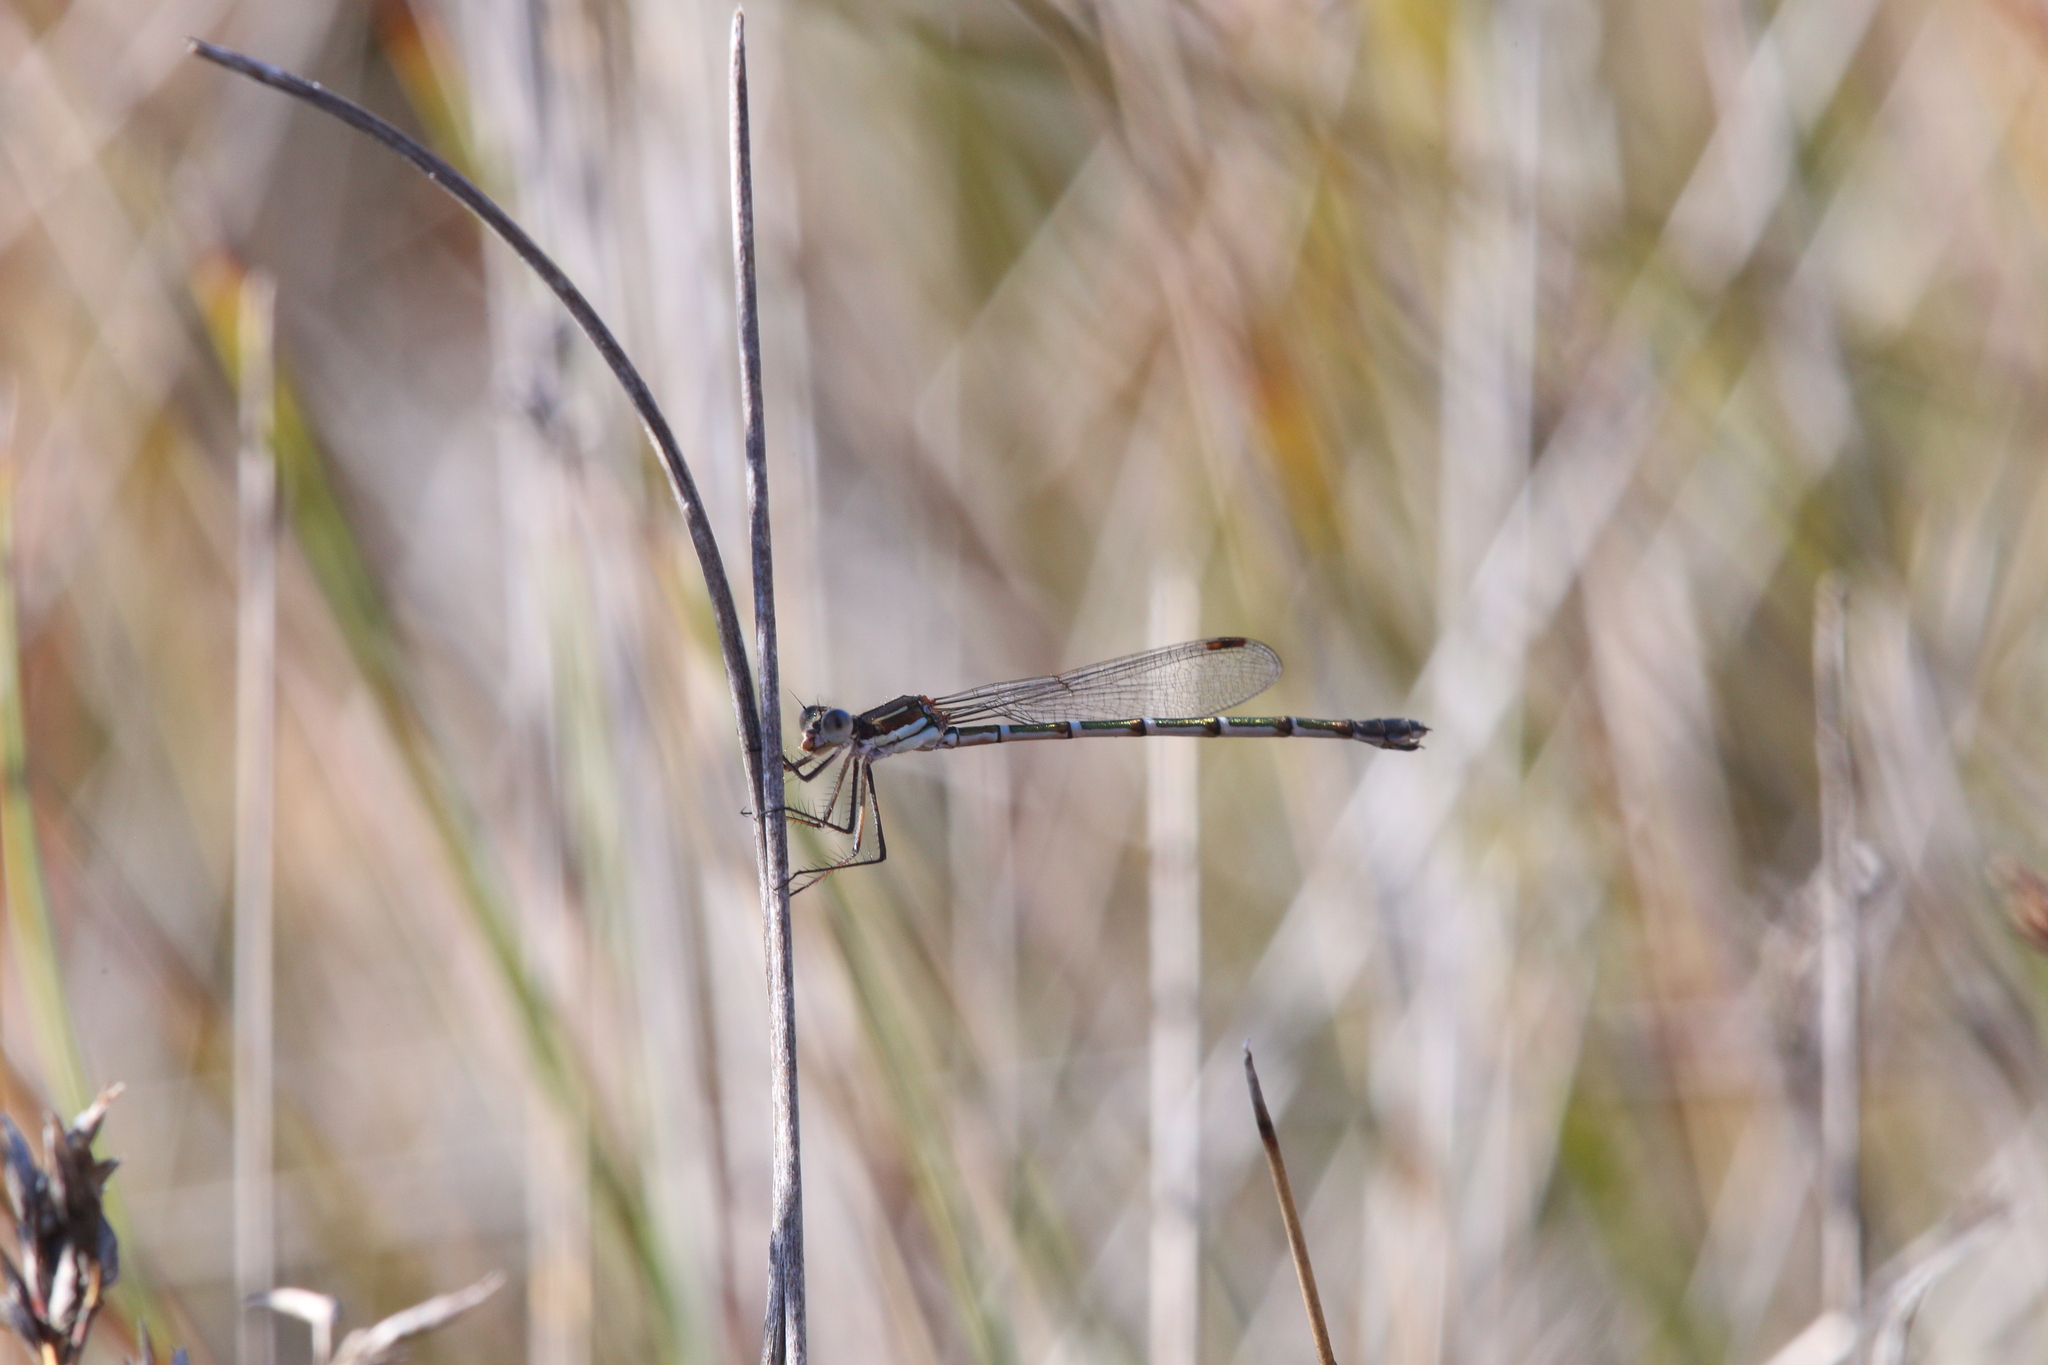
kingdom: Animalia
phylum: Arthropoda
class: Insecta
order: Odonata
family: Lestidae
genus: Austrolestes
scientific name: Austrolestes aleison
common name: Western ringtail
